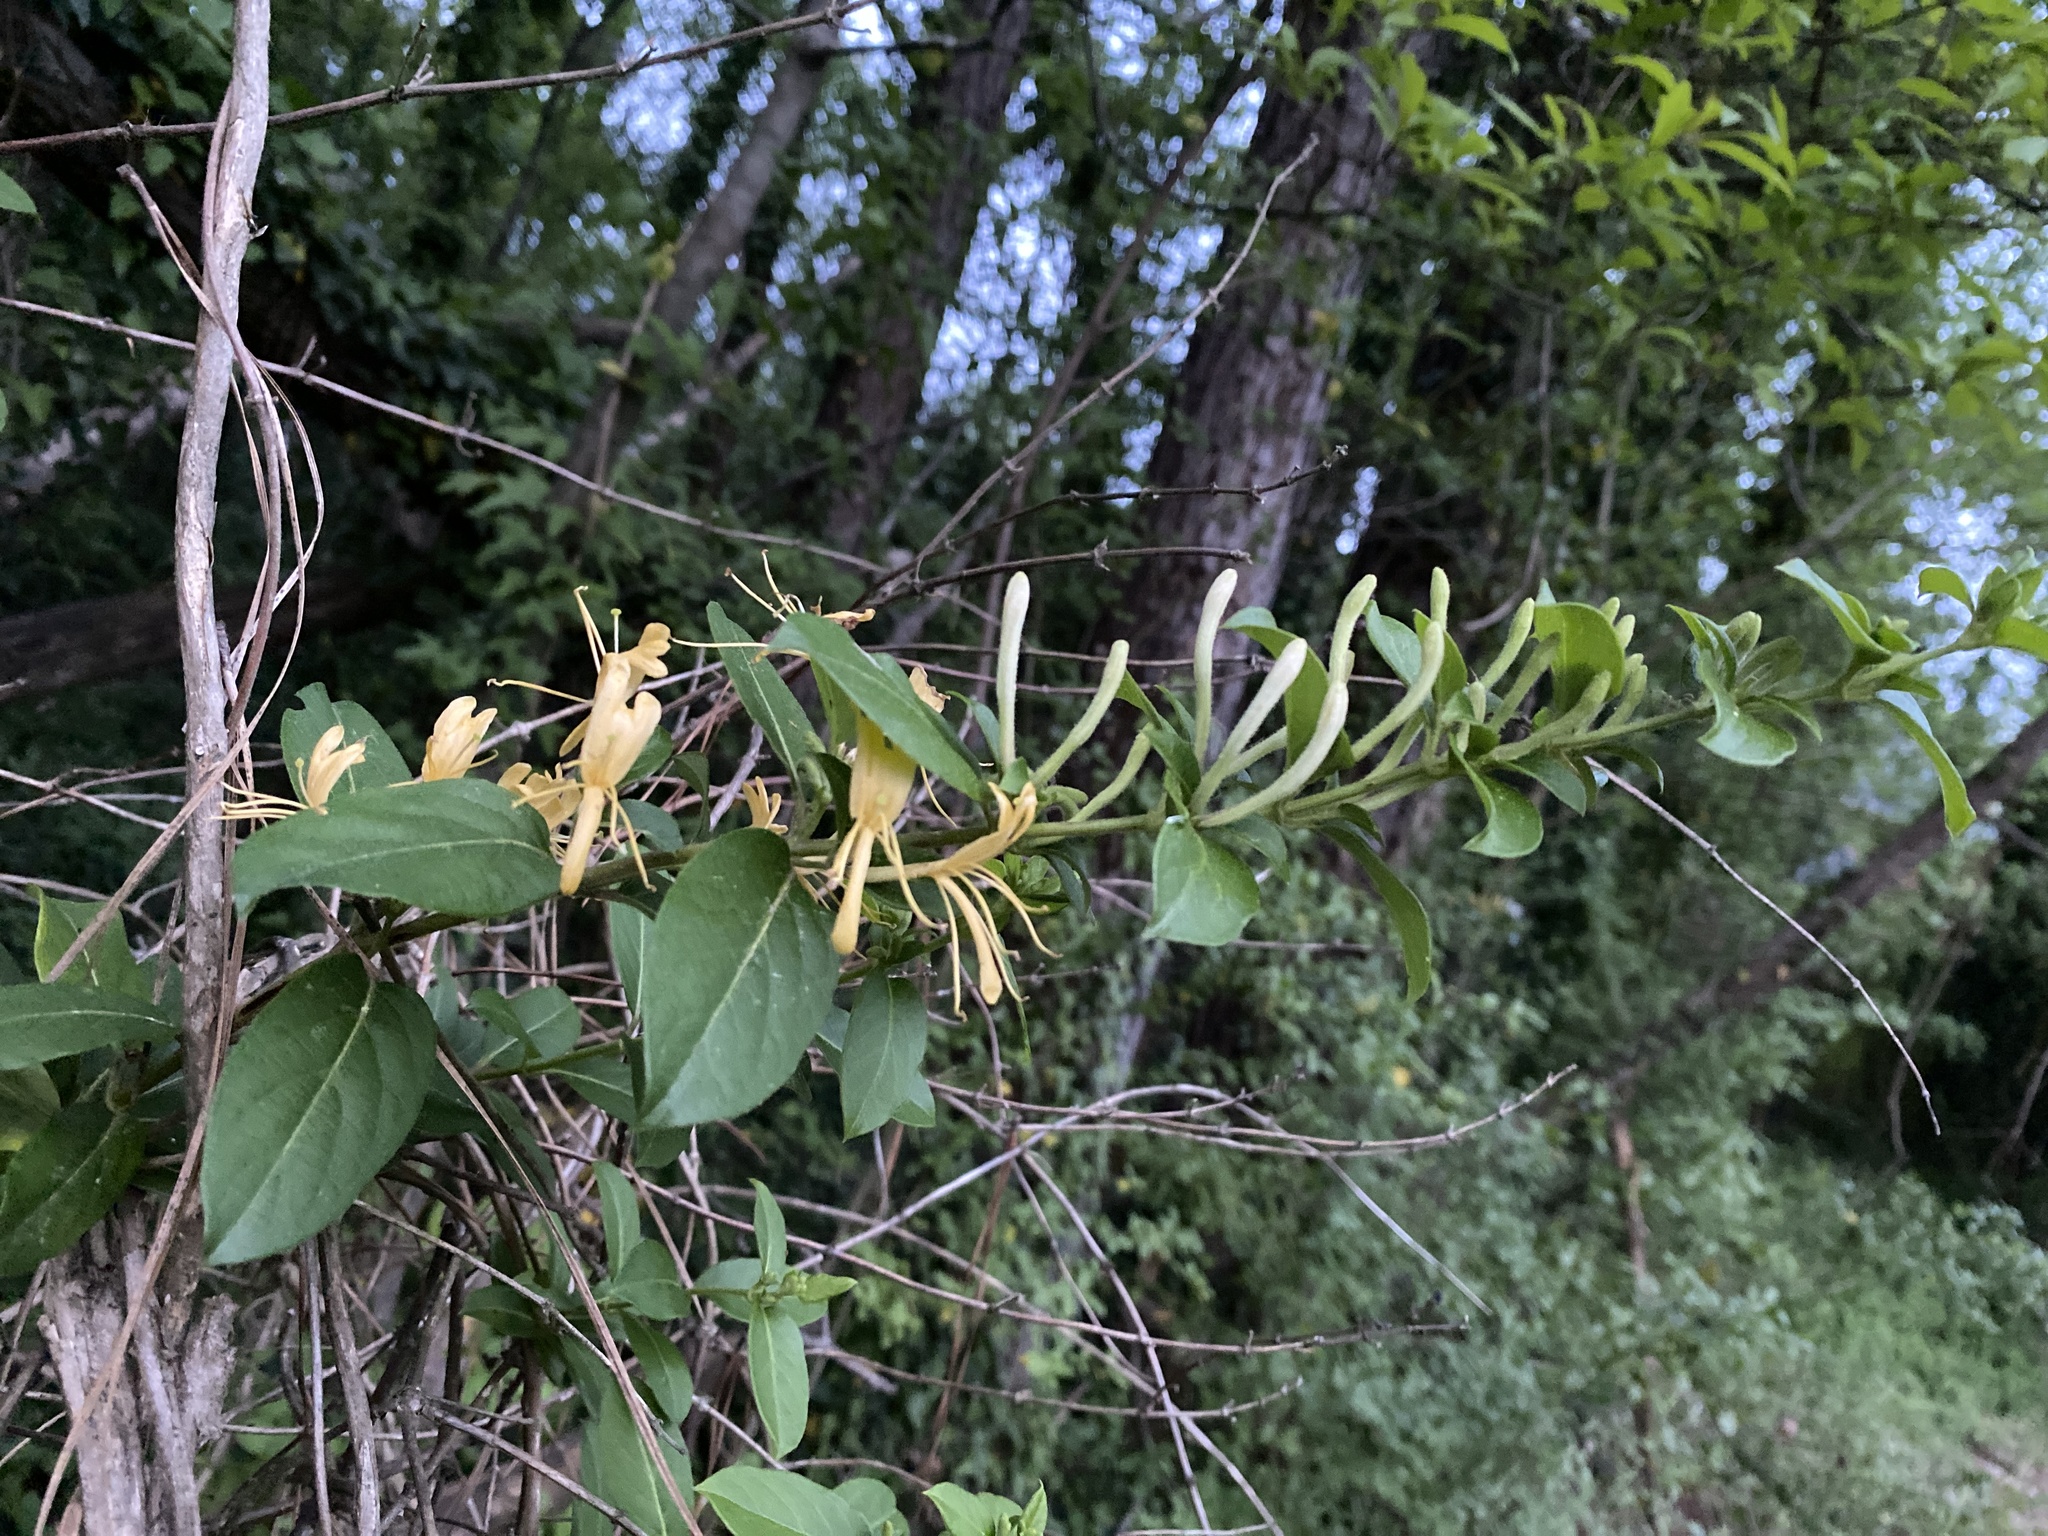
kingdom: Plantae
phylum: Tracheophyta
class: Magnoliopsida
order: Dipsacales
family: Caprifoliaceae
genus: Lonicera
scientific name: Lonicera japonica
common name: Japanese honeysuckle
